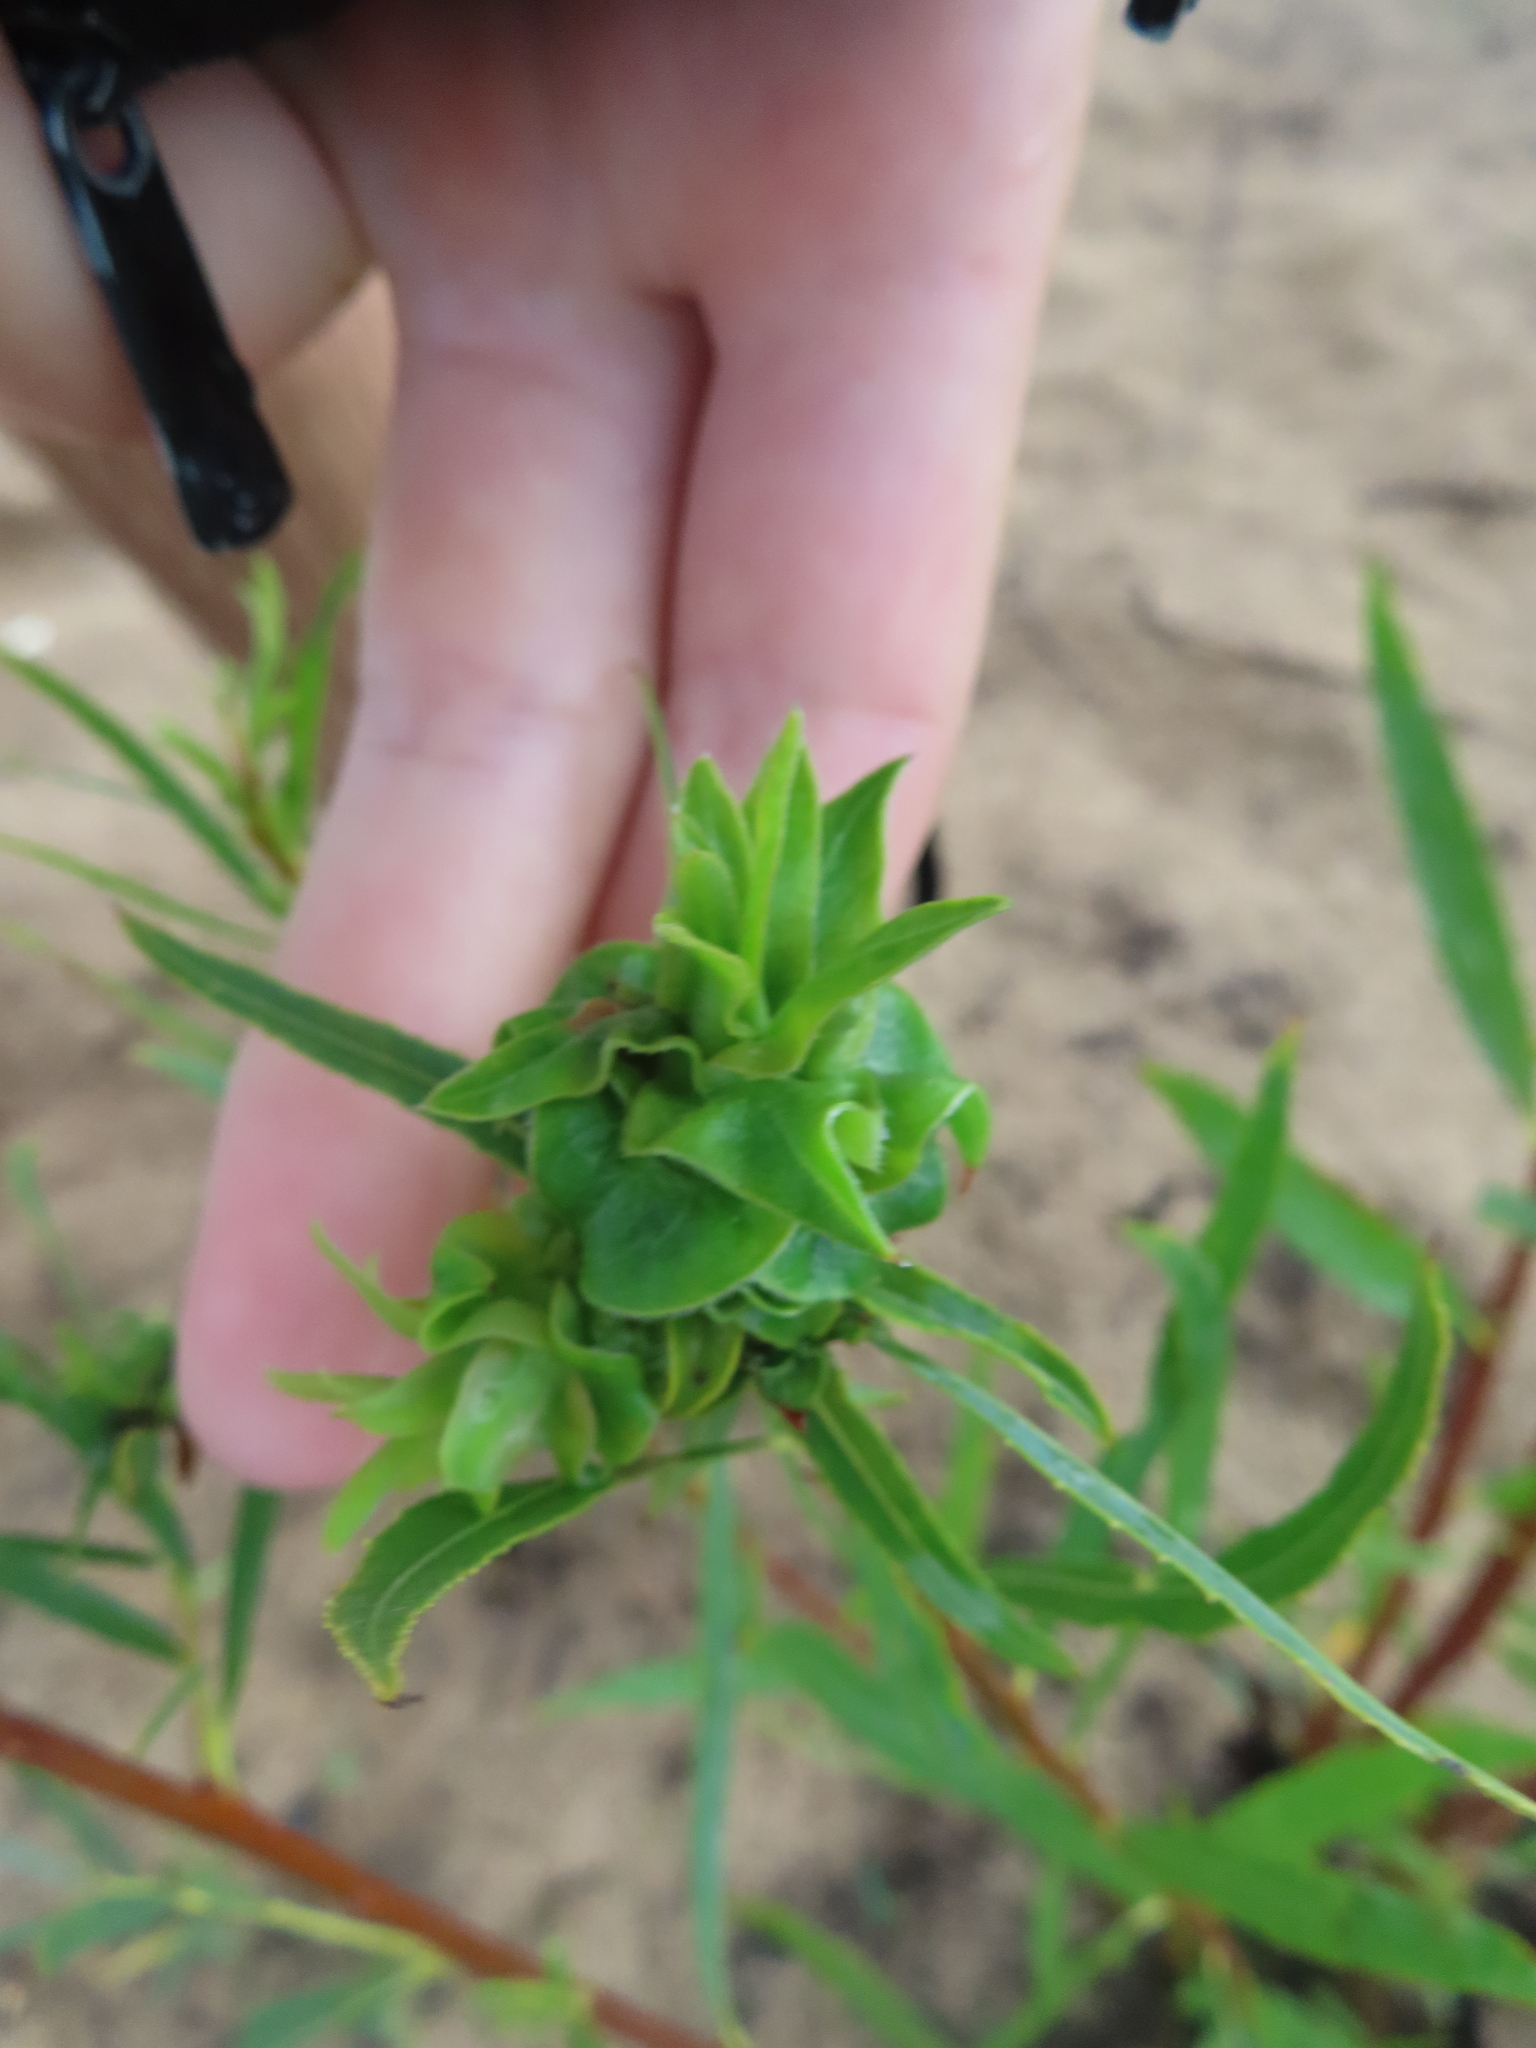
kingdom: Animalia
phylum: Arthropoda
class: Insecta
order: Diptera
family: Cecidomyiidae
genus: Rabdophaga
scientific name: Rabdophaga salicisbrassicoides
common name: Willow cabbagegall midge
